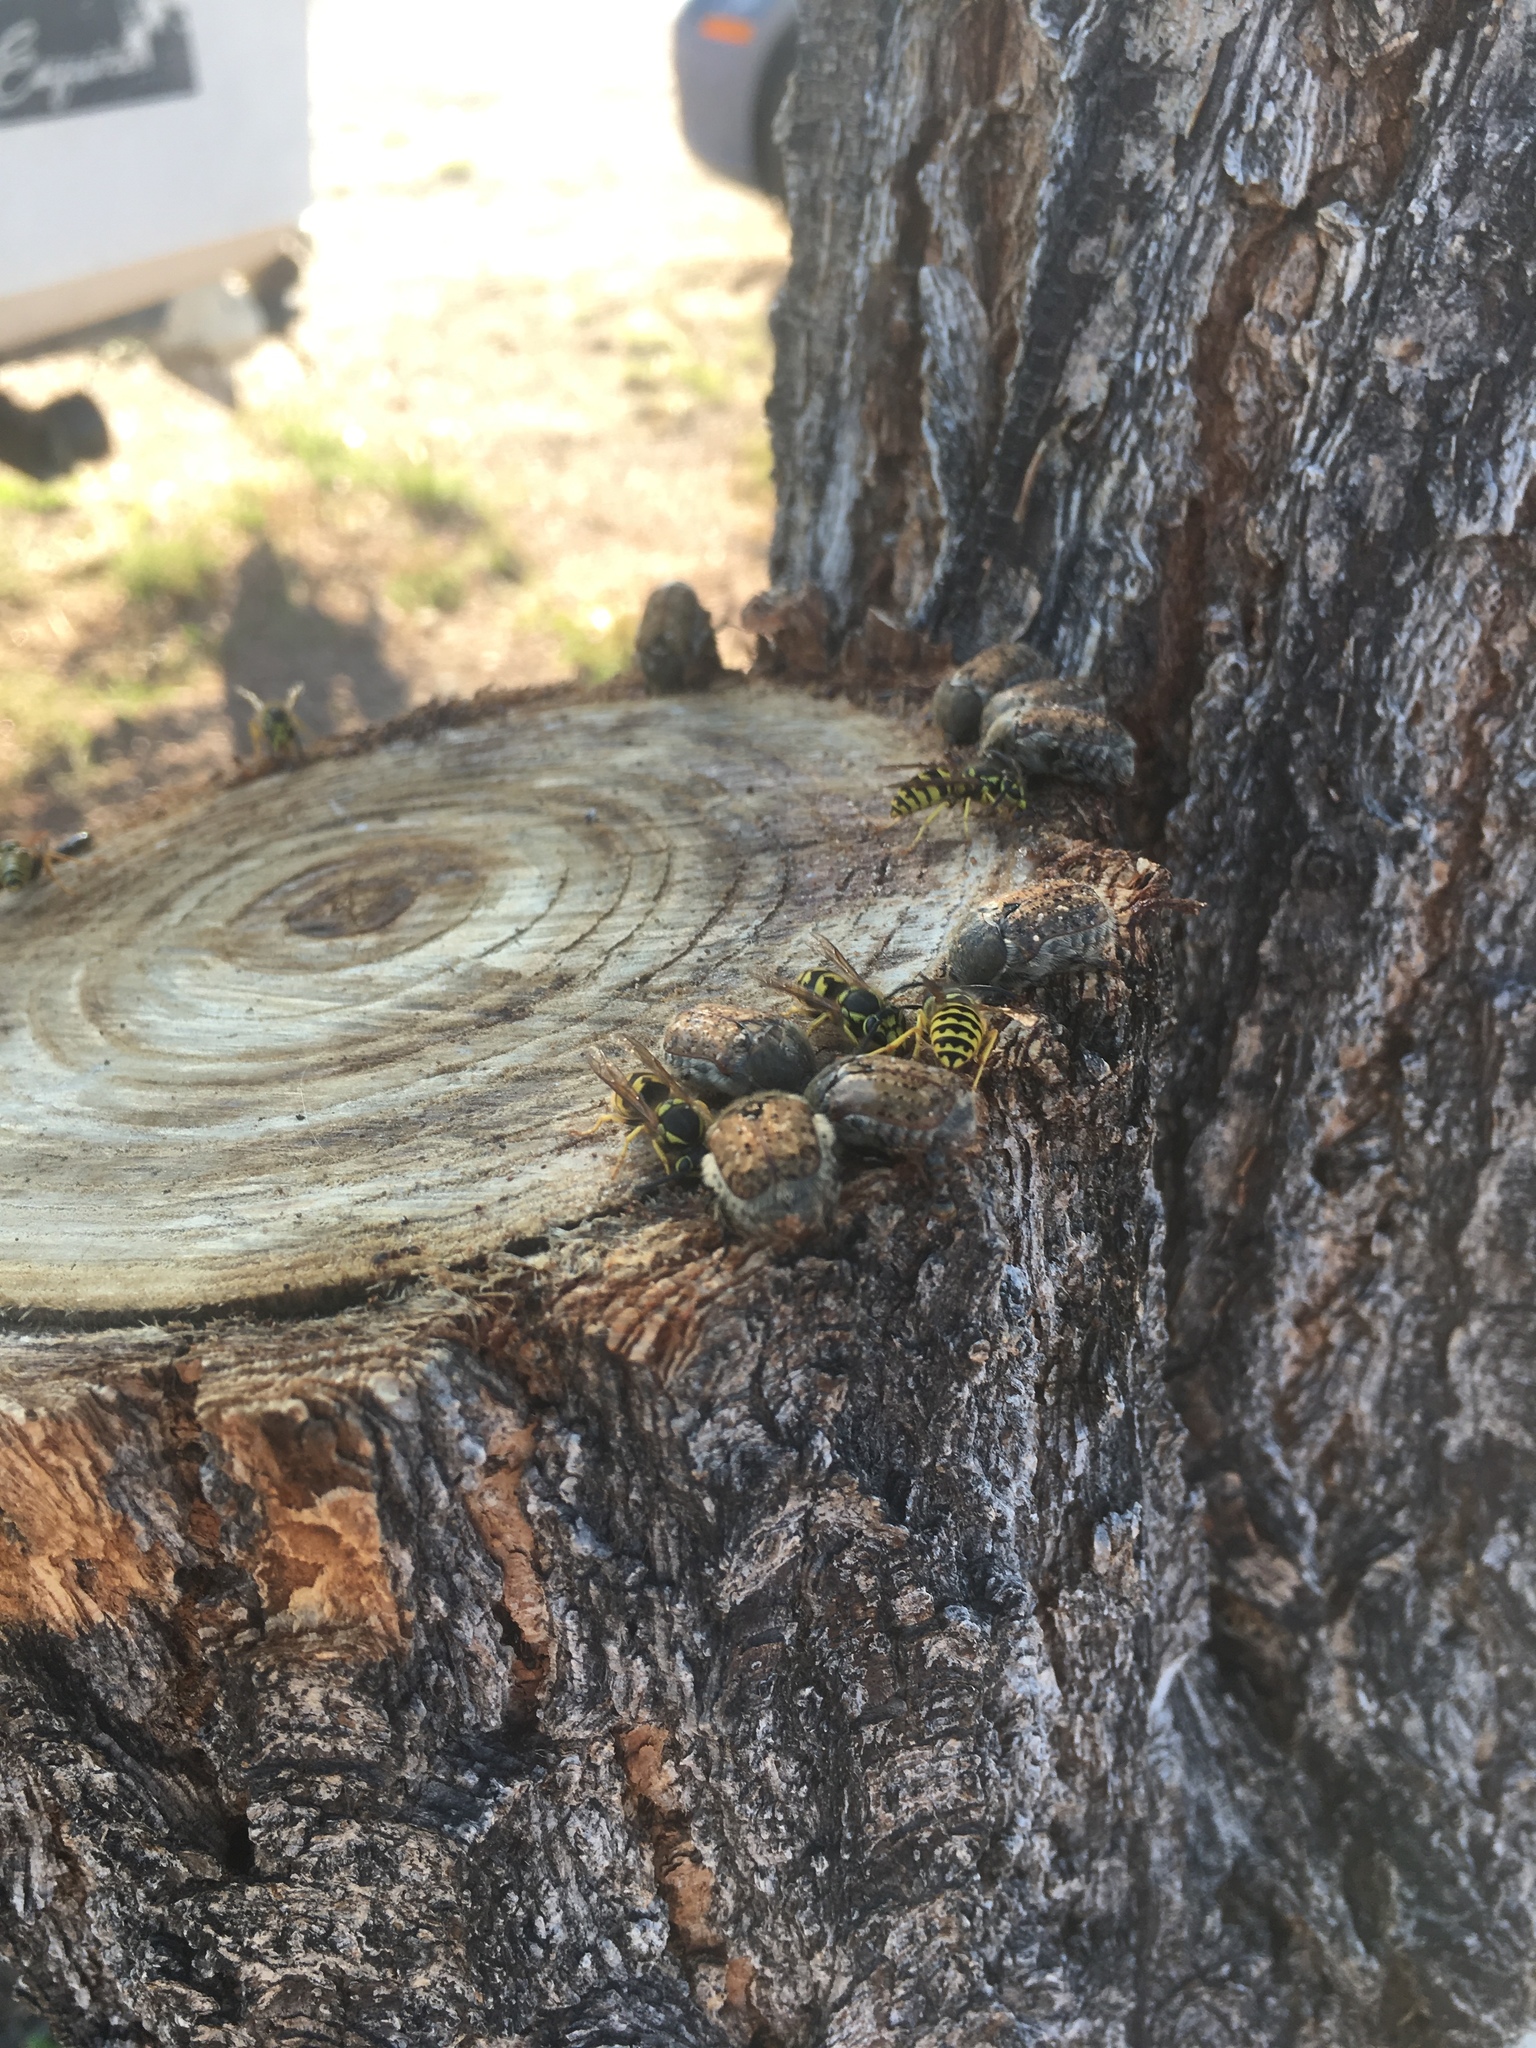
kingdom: Animalia
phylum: Arthropoda
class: Insecta
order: Coleoptera
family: Scarabaeidae
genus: Euphoria
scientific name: Euphoria inda
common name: Bumble flower beetle
